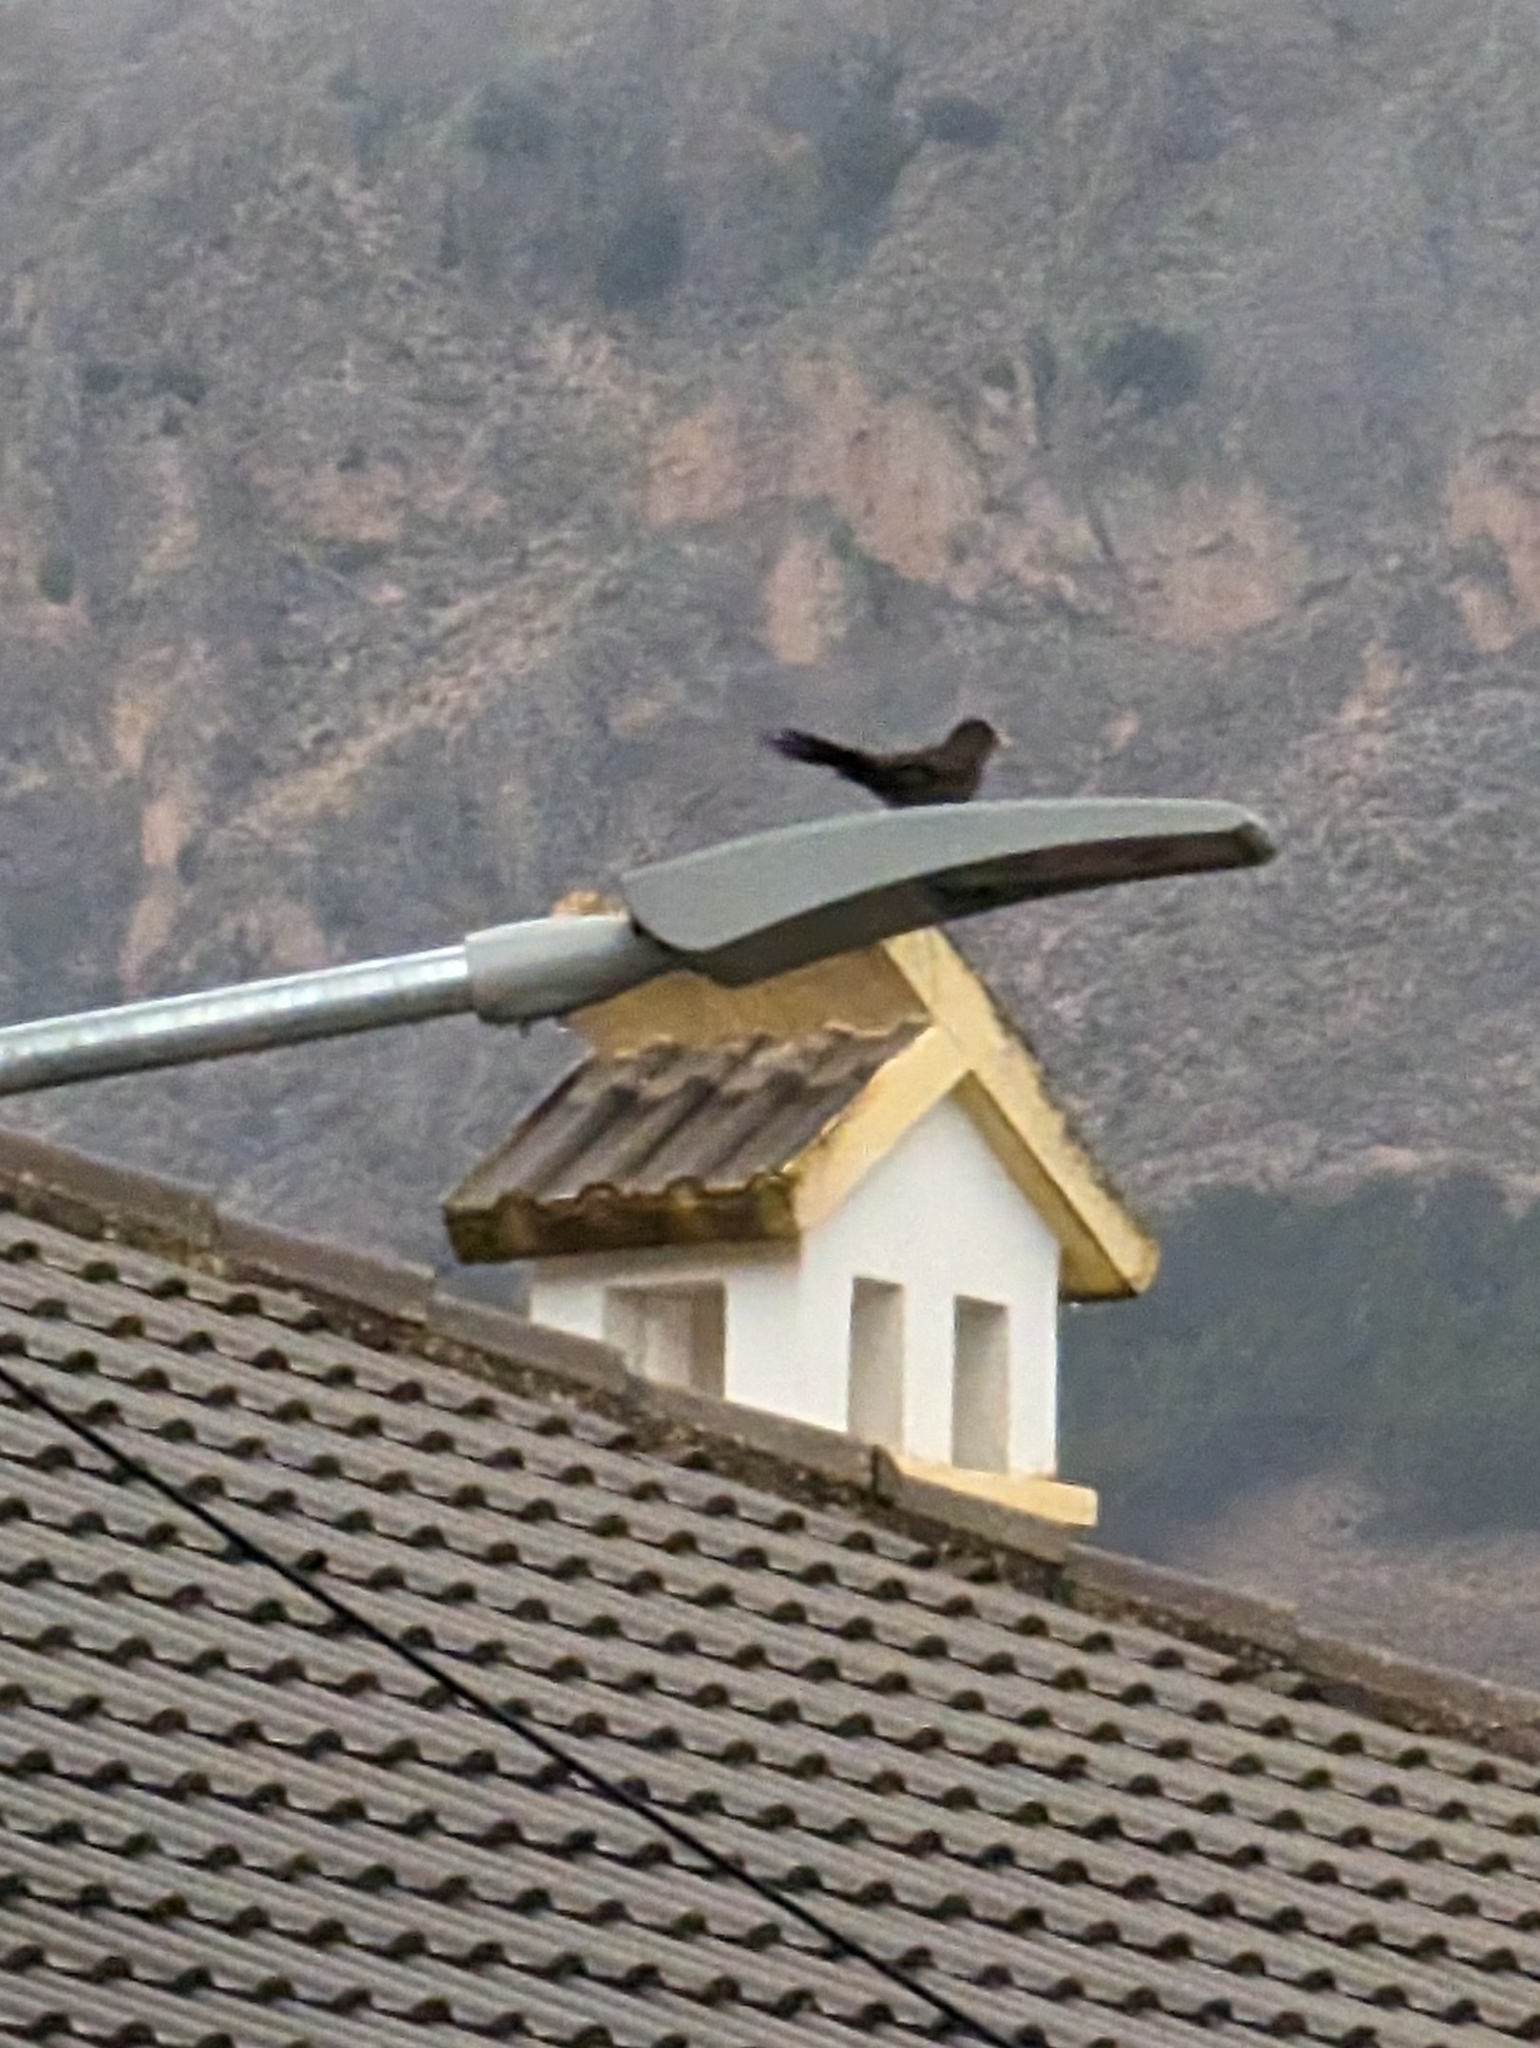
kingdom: Animalia
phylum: Chordata
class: Aves
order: Passeriformes
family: Turdidae
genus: Turdus
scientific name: Turdus merula
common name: Common blackbird
